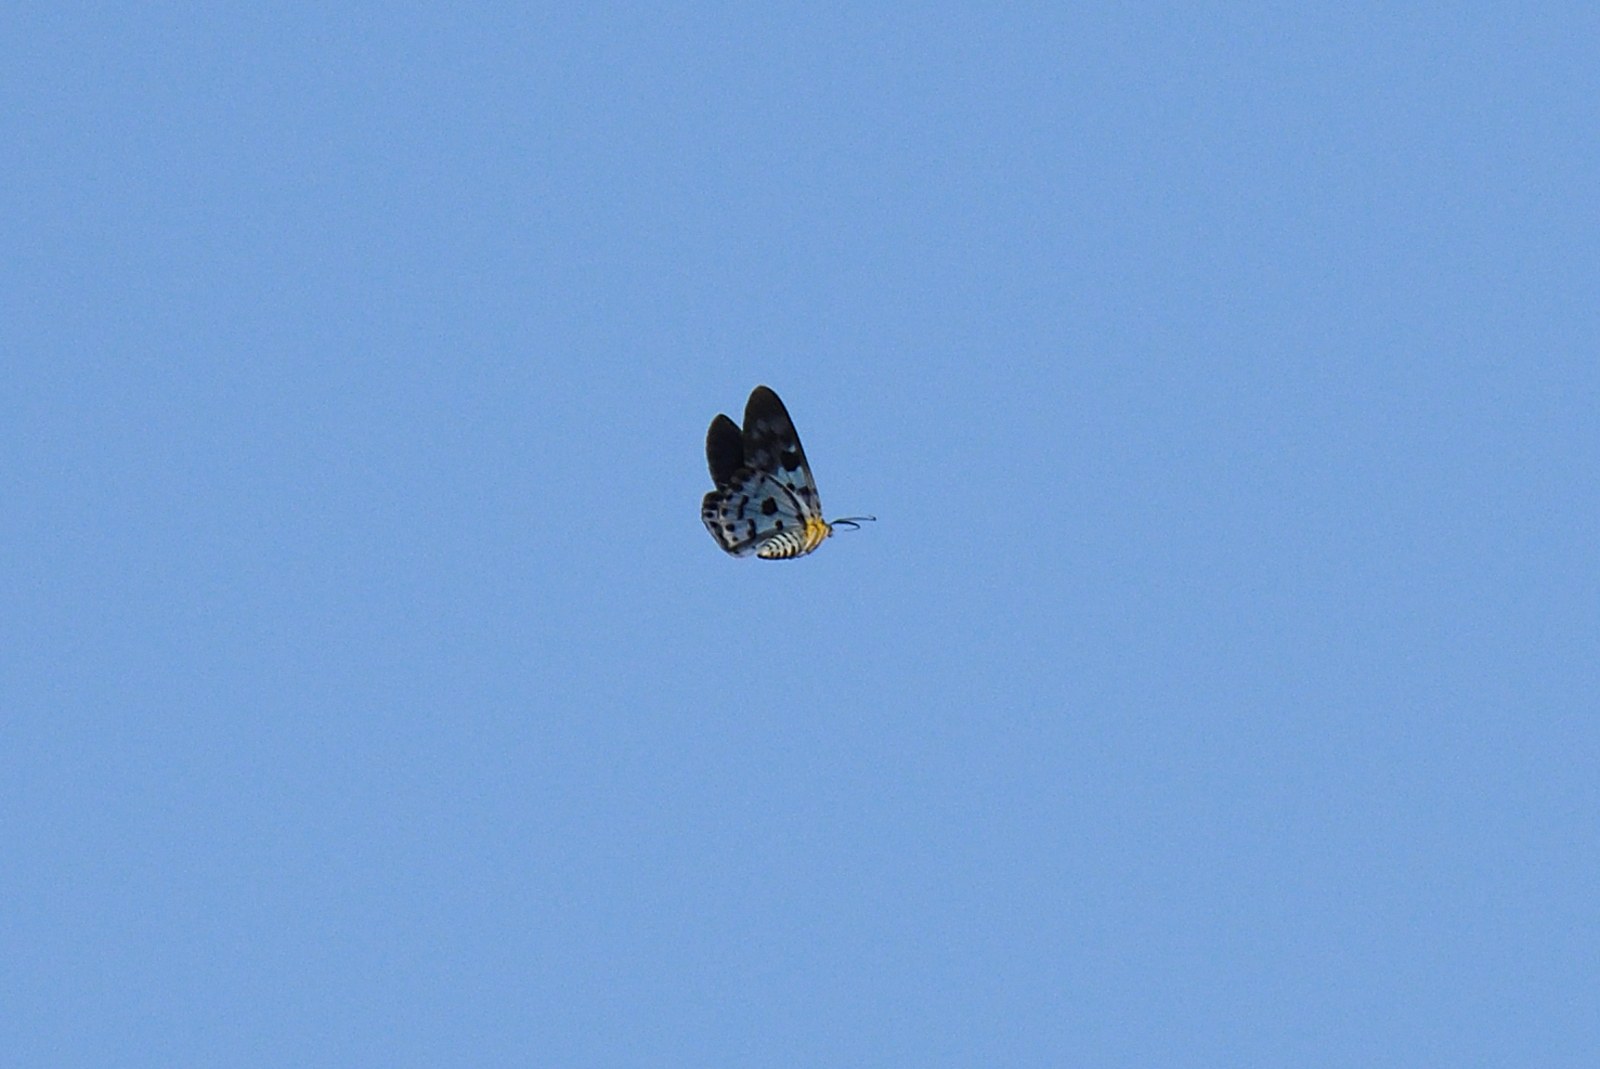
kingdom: Animalia
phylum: Arthropoda
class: Insecta
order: Lepidoptera
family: Geometridae
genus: Dysphania
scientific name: Dysphania percota
